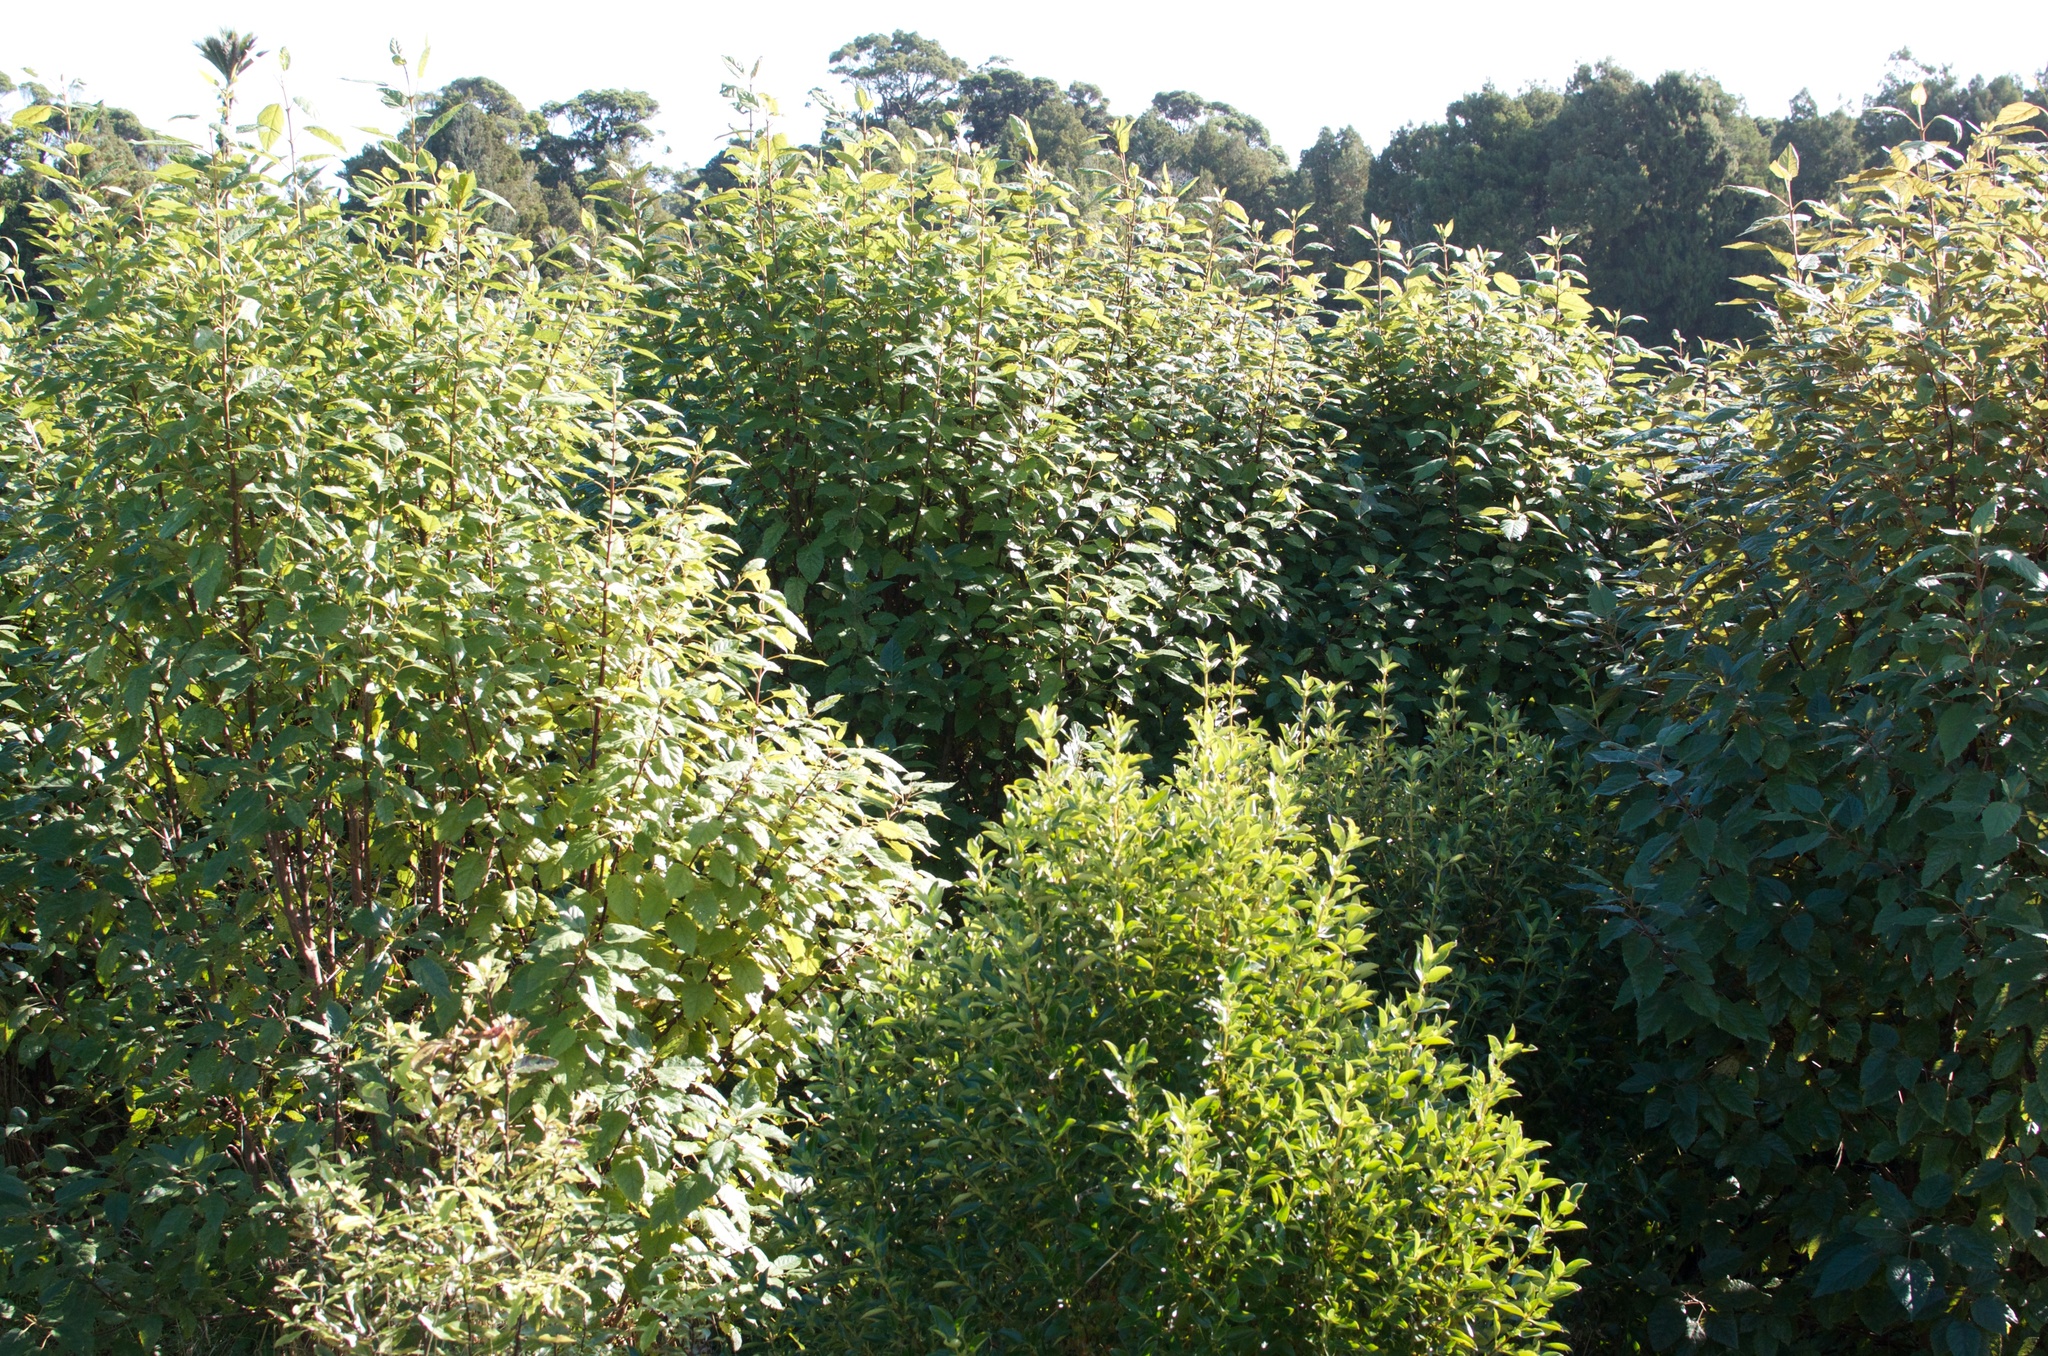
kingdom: Plantae
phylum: Tracheophyta
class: Magnoliopsida
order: Oxalidales
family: Elaeocarpaceae
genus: Aristotelia
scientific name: Aristotelia serrata
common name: New zealand wineberry
